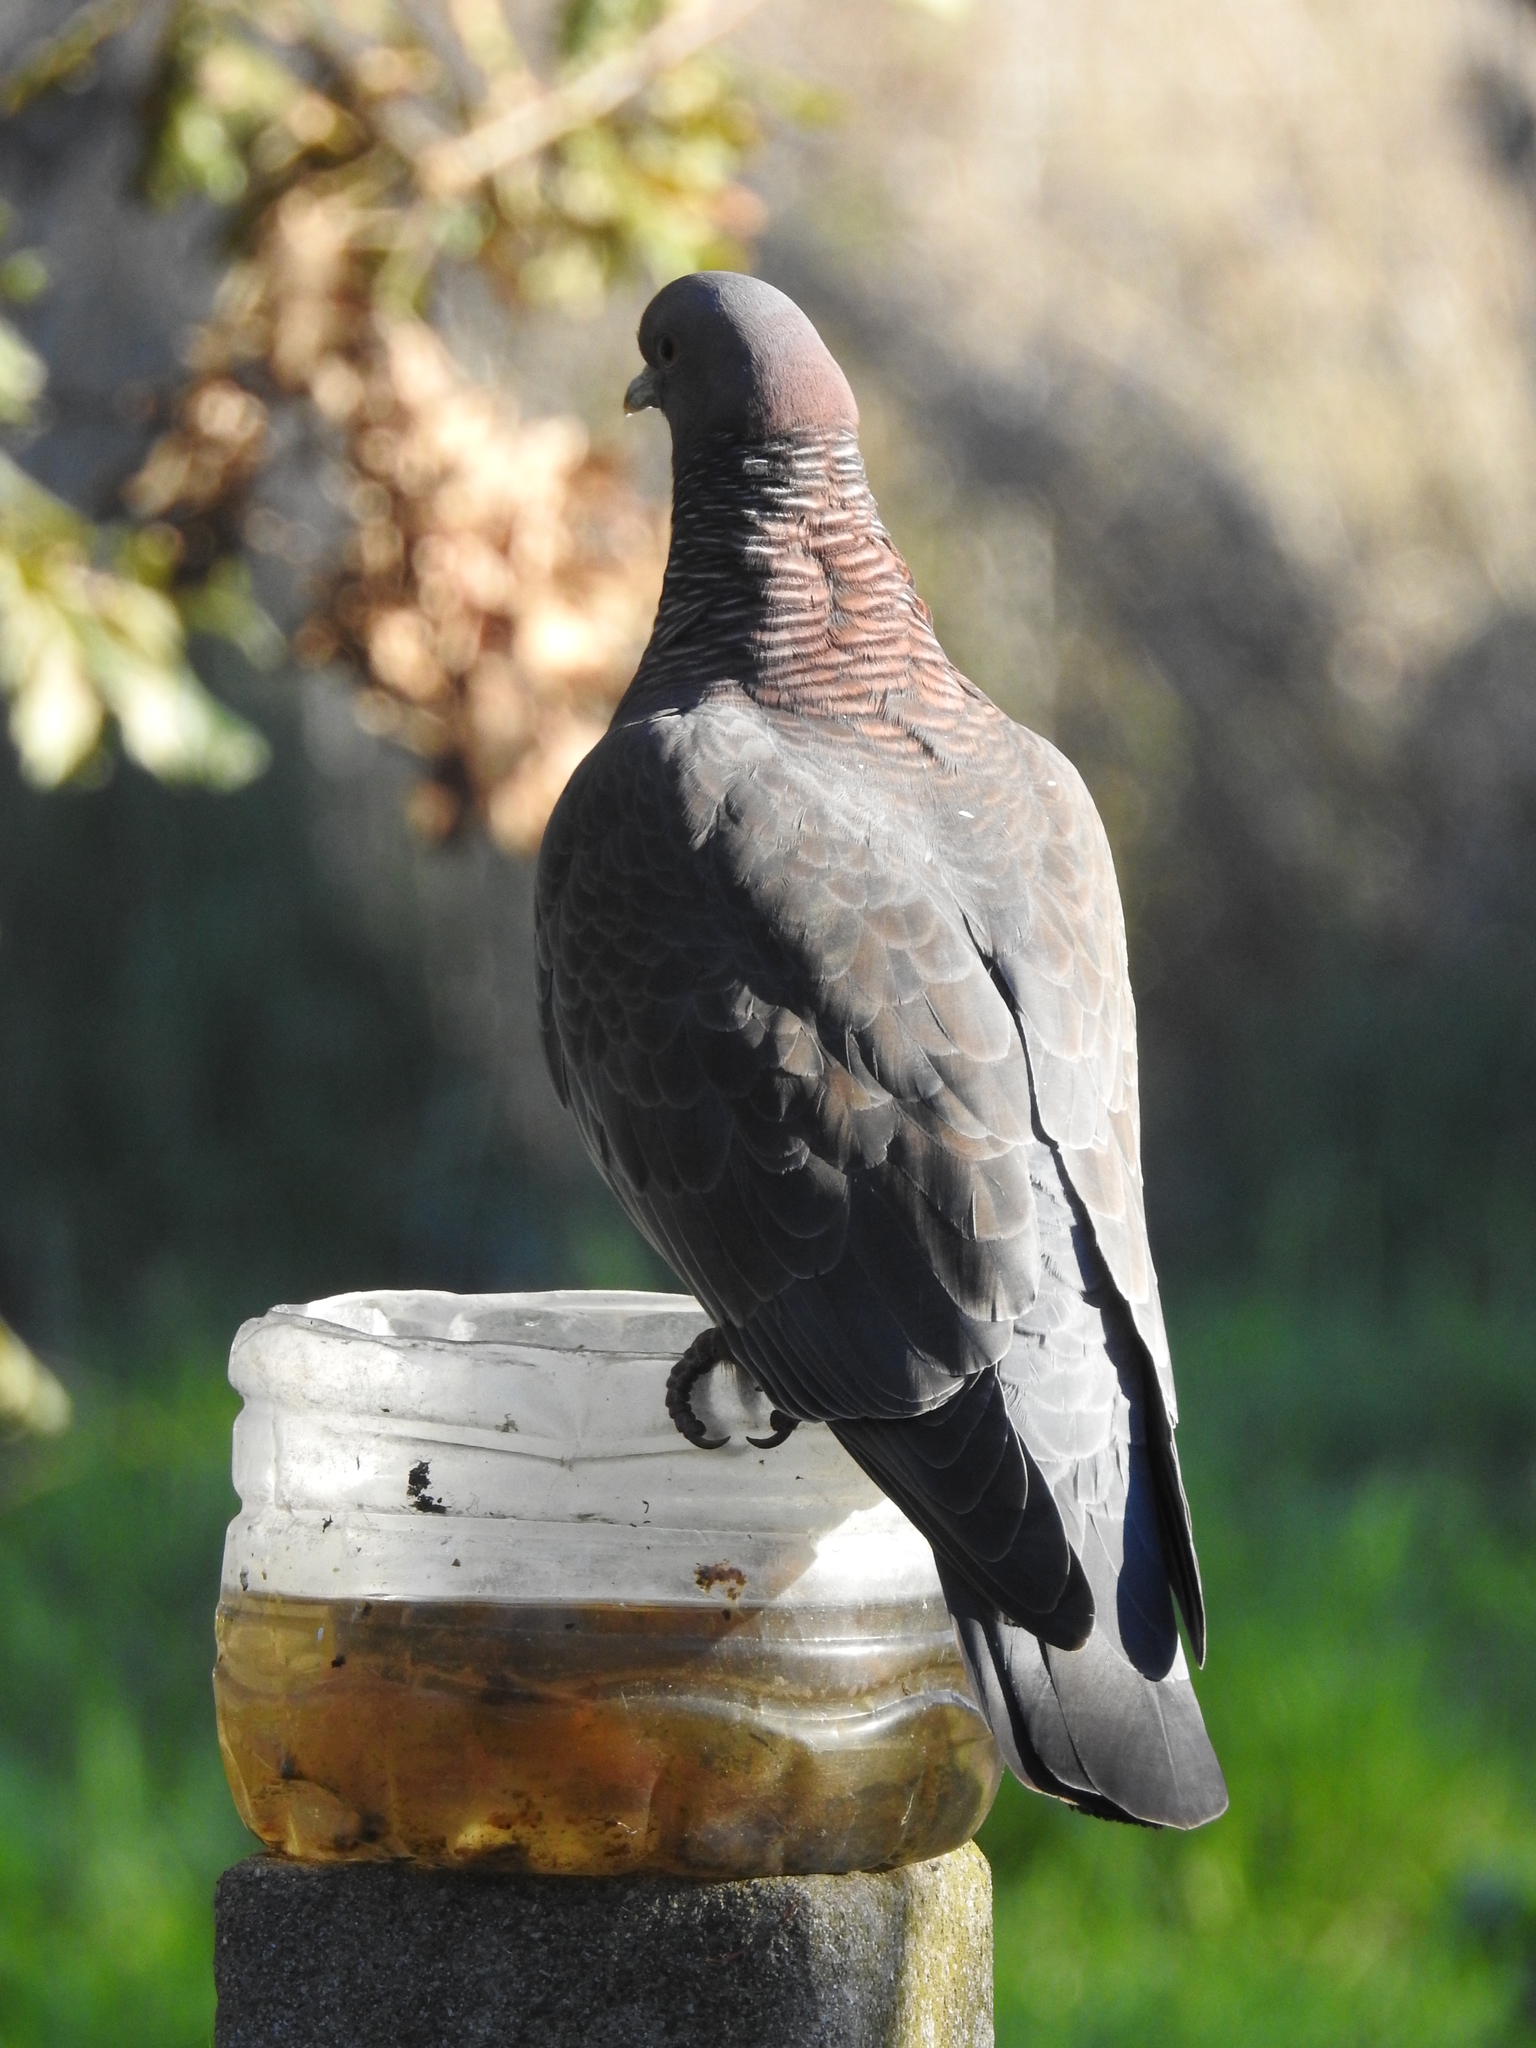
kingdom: Animalia
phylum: Chordata
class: Aves
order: Columbiformes
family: Columbidae
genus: Patagioenas
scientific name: Patagioenas picazuro
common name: Picazuro pigeon
